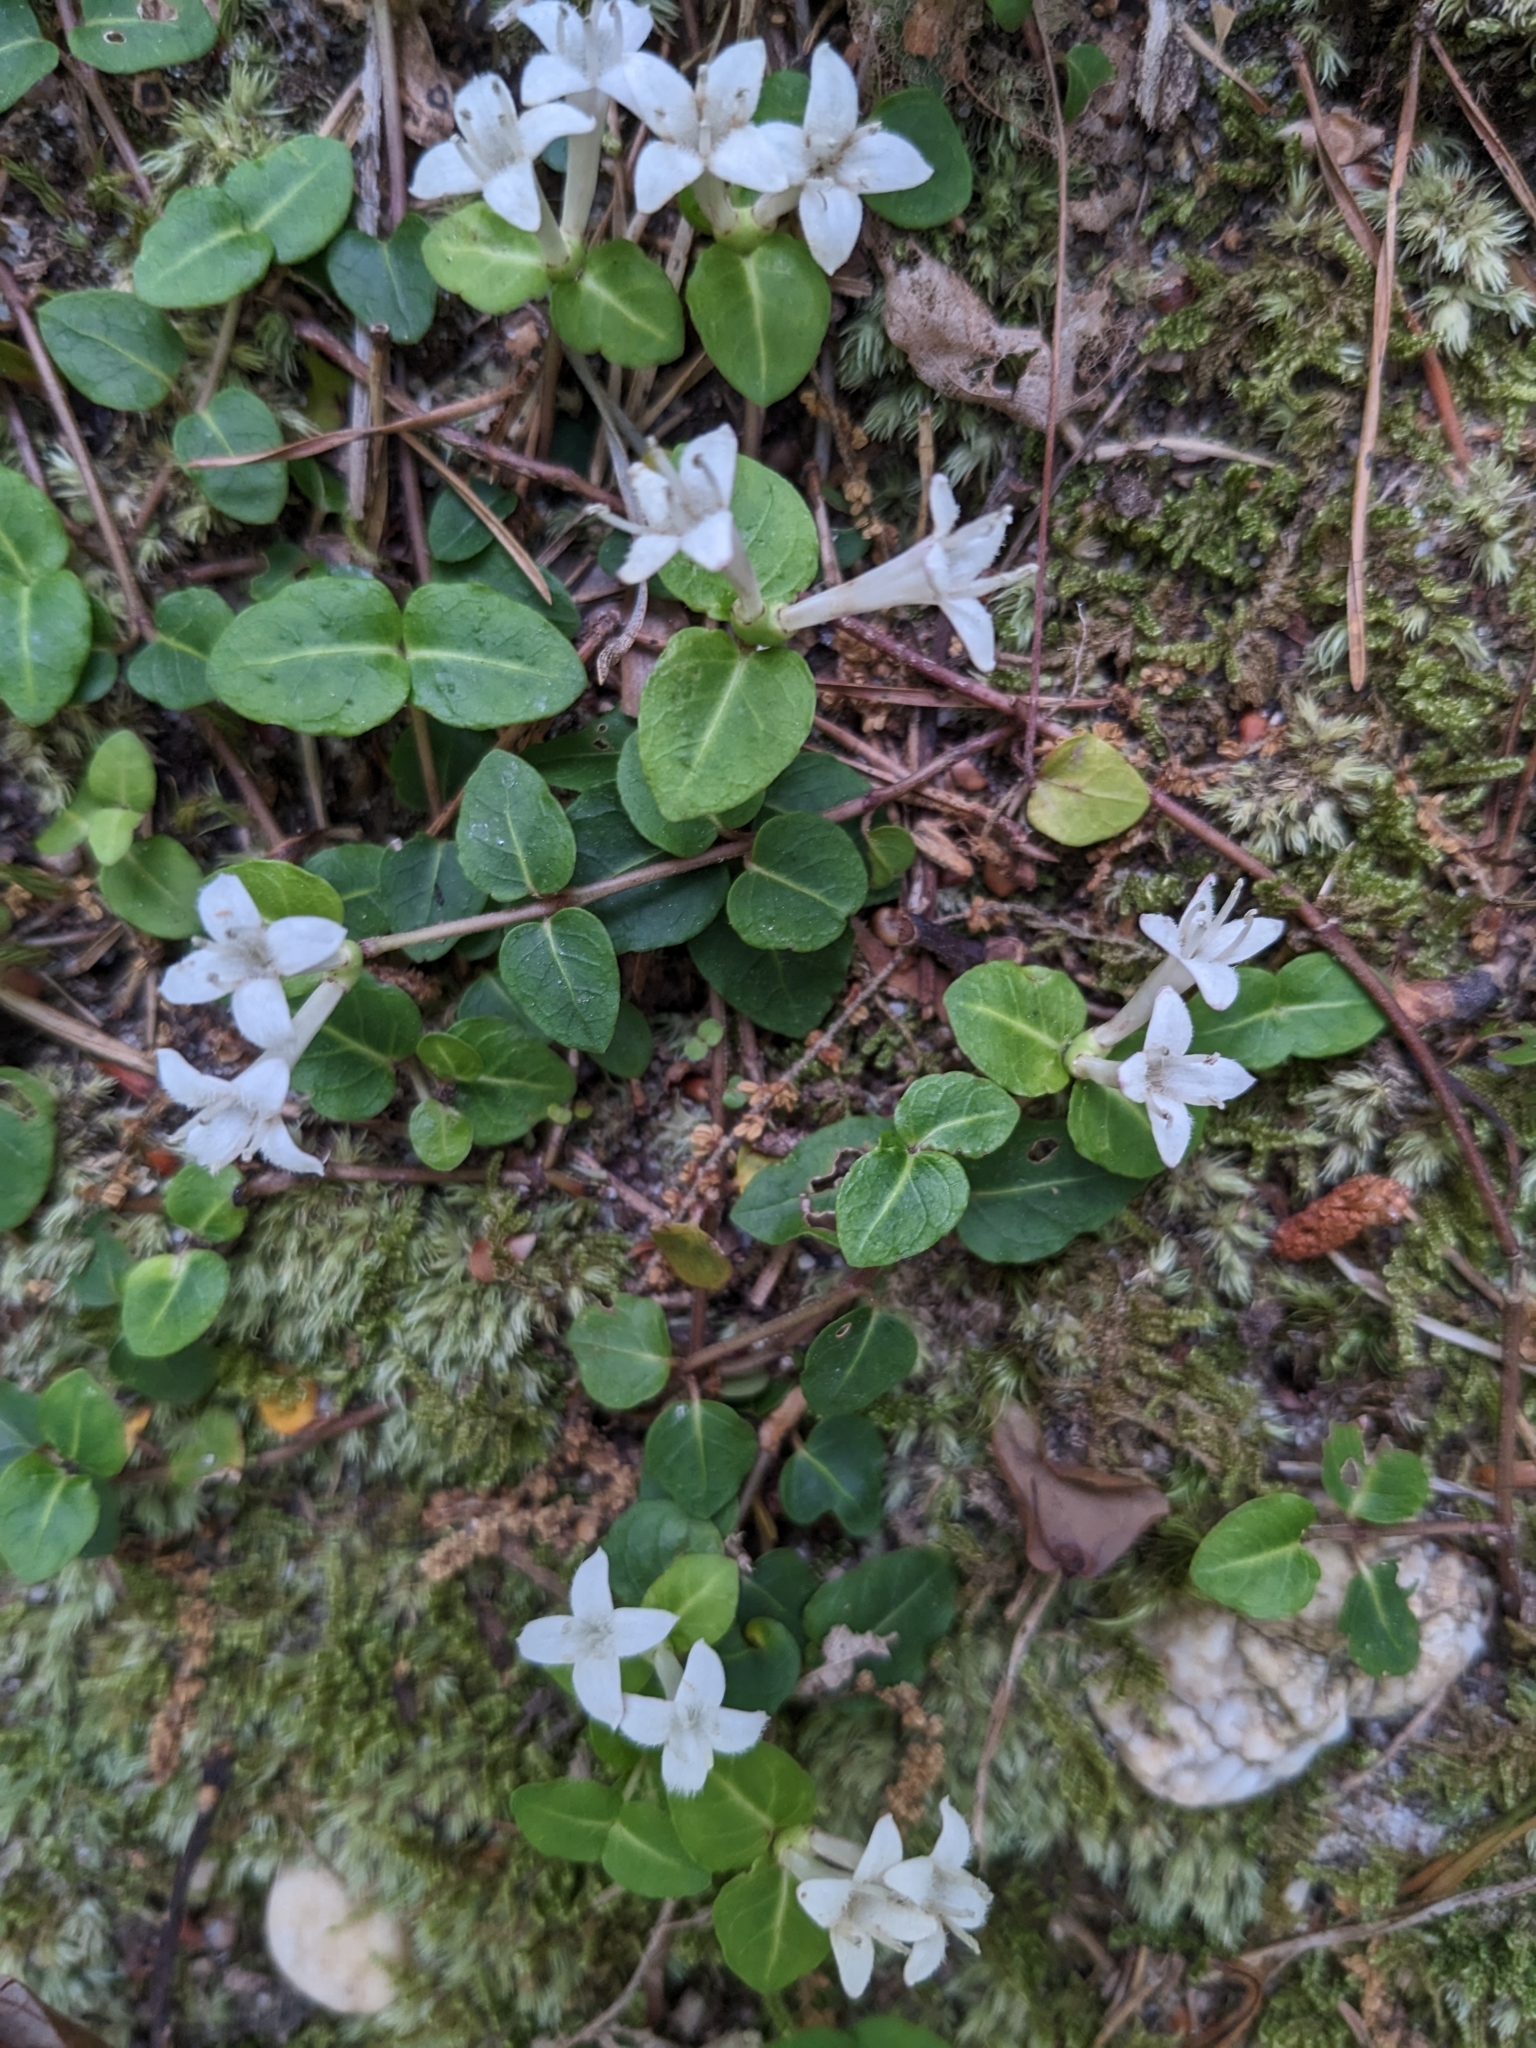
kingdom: Plantae
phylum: Tracheophyta
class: Magnoliopsida
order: Gentianales
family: Rubiaceae
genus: Mitchella
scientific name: Mitchella repens
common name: Partridge-berry
